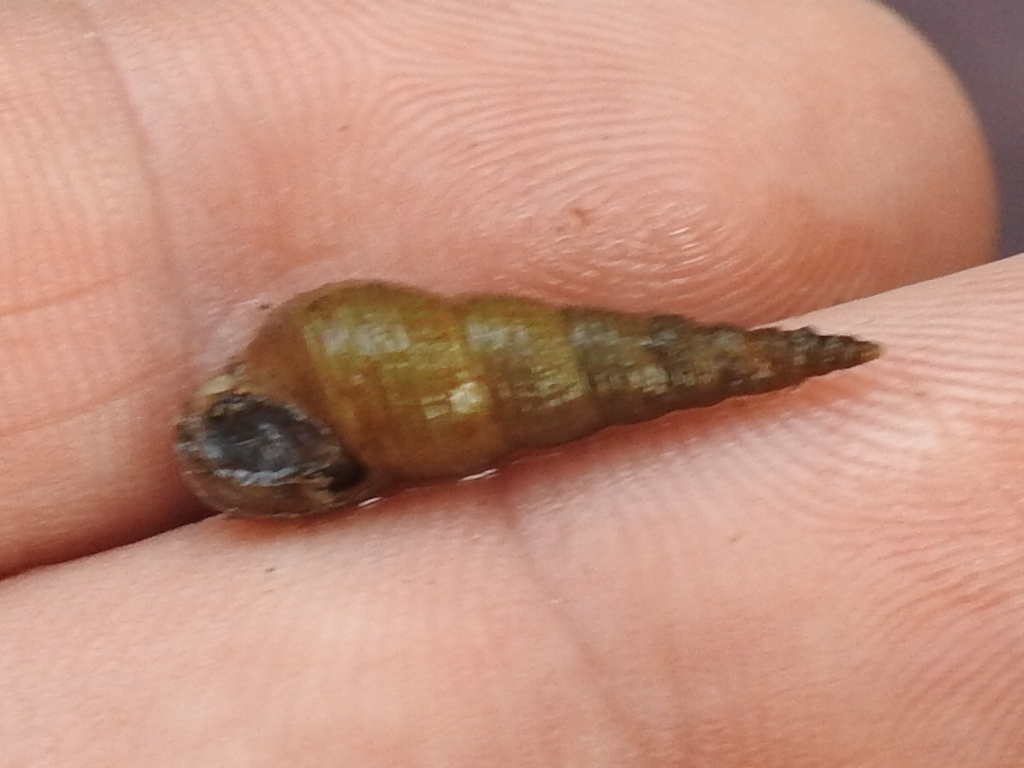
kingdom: Animalia
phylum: Mollusca
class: Gastropoda
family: Thiaridae
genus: Melanoides
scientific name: Melanoides tuberculata
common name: Red-rim melania
